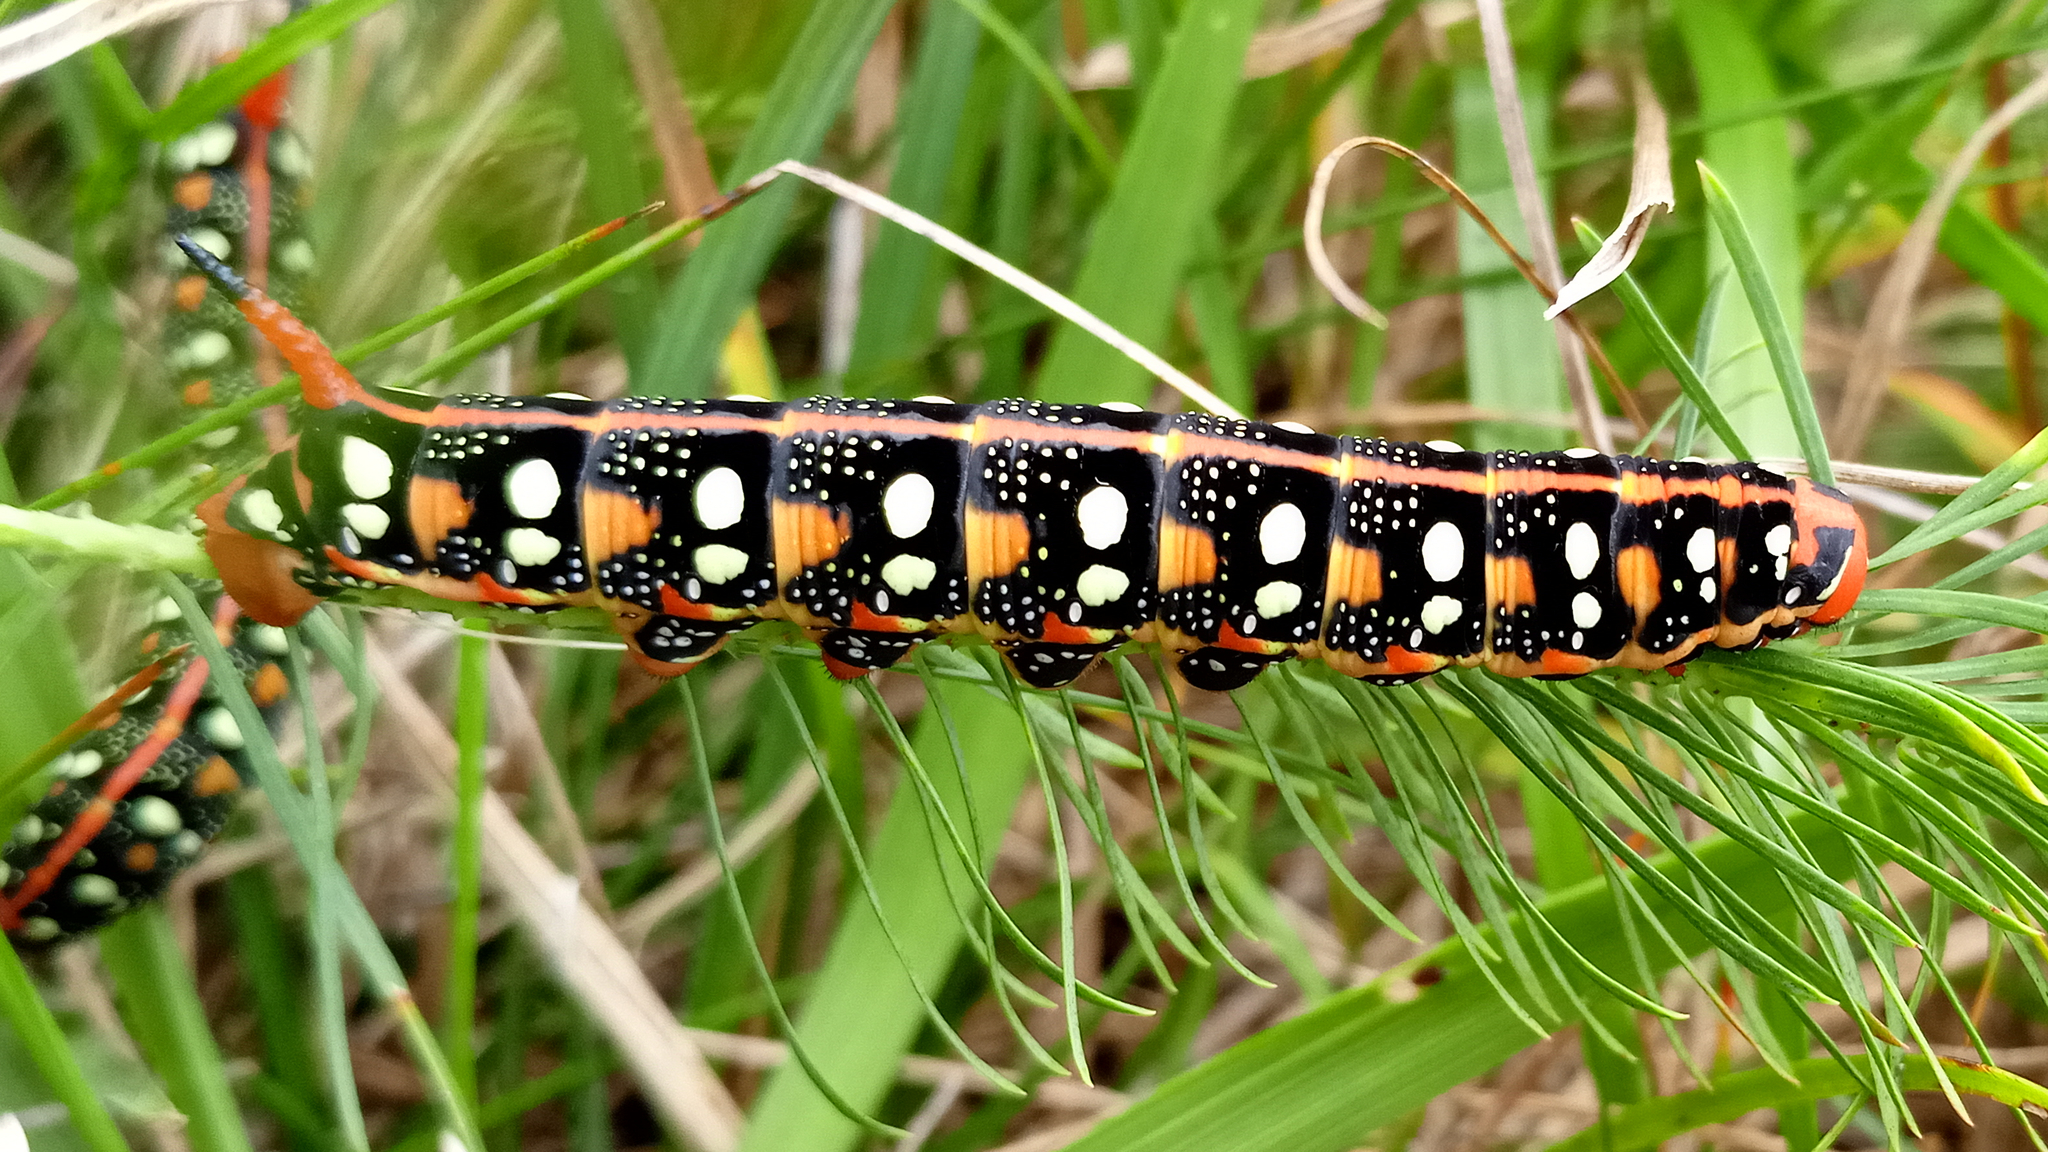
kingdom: Animalia
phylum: Arthropoda
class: Insecta
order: Lepidoptera
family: Sphingidae
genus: Hyles
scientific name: Hyles euphorbiae
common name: Spurge hawk-moth
